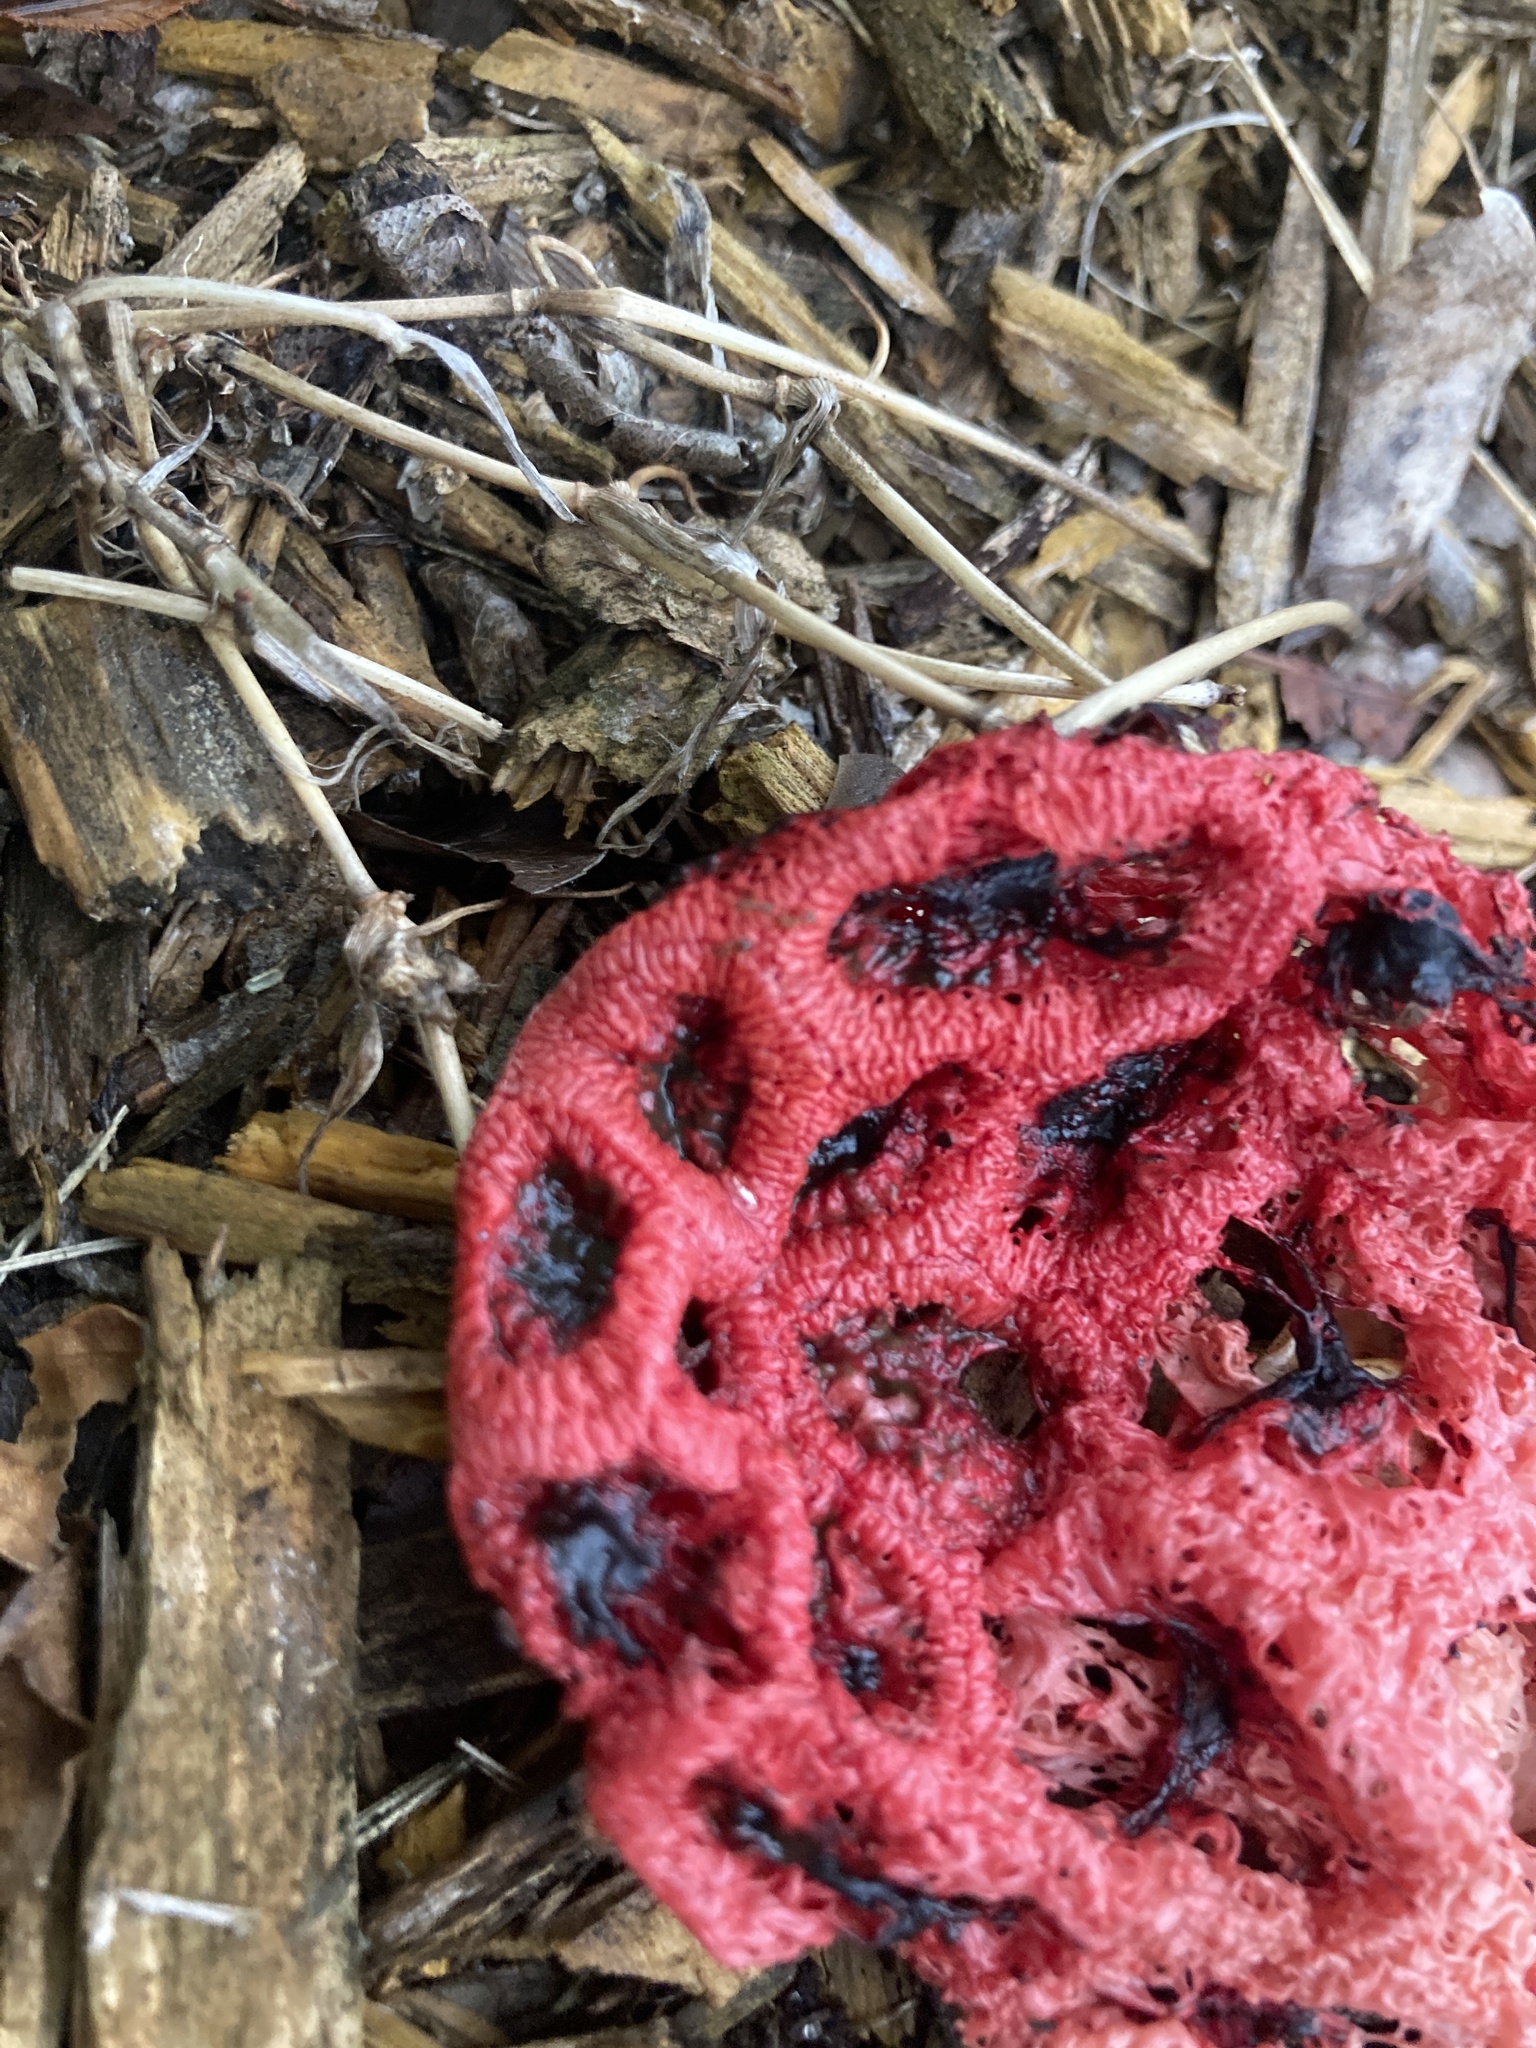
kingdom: Fungi
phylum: Basidiomycota
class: Agaricomycetes
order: Phallales
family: Phallaceae
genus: Clathrus
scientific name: Clathrus crispatus
